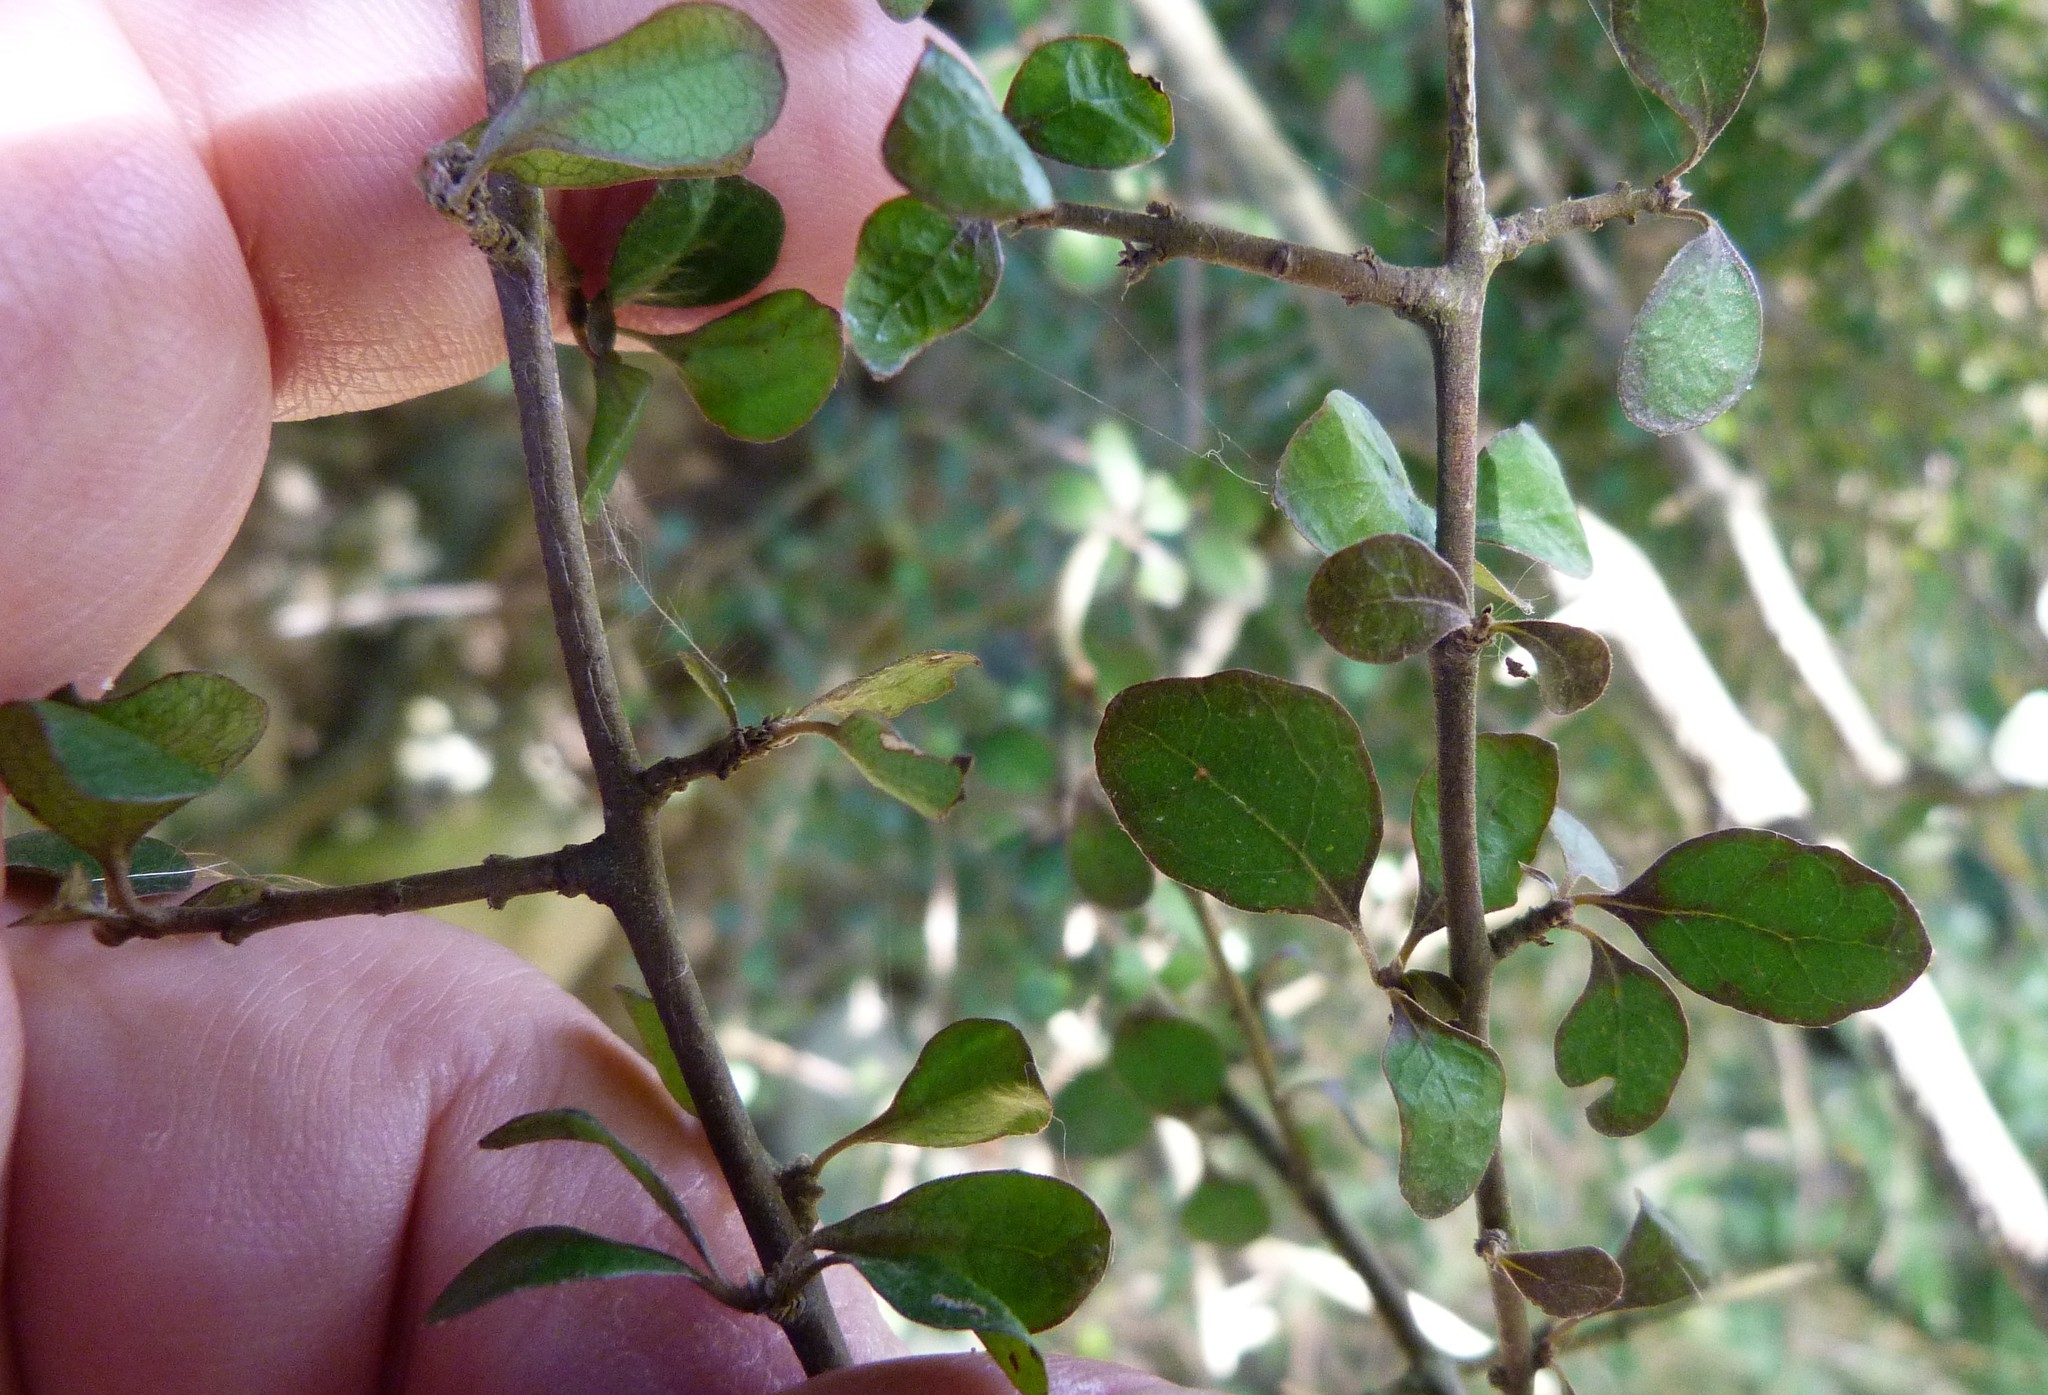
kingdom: Plantae
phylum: Tracheophyta
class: Magnoliopsida
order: Gentianales
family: Rubiaceae
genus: Coprosma
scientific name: Coprosma rubra
